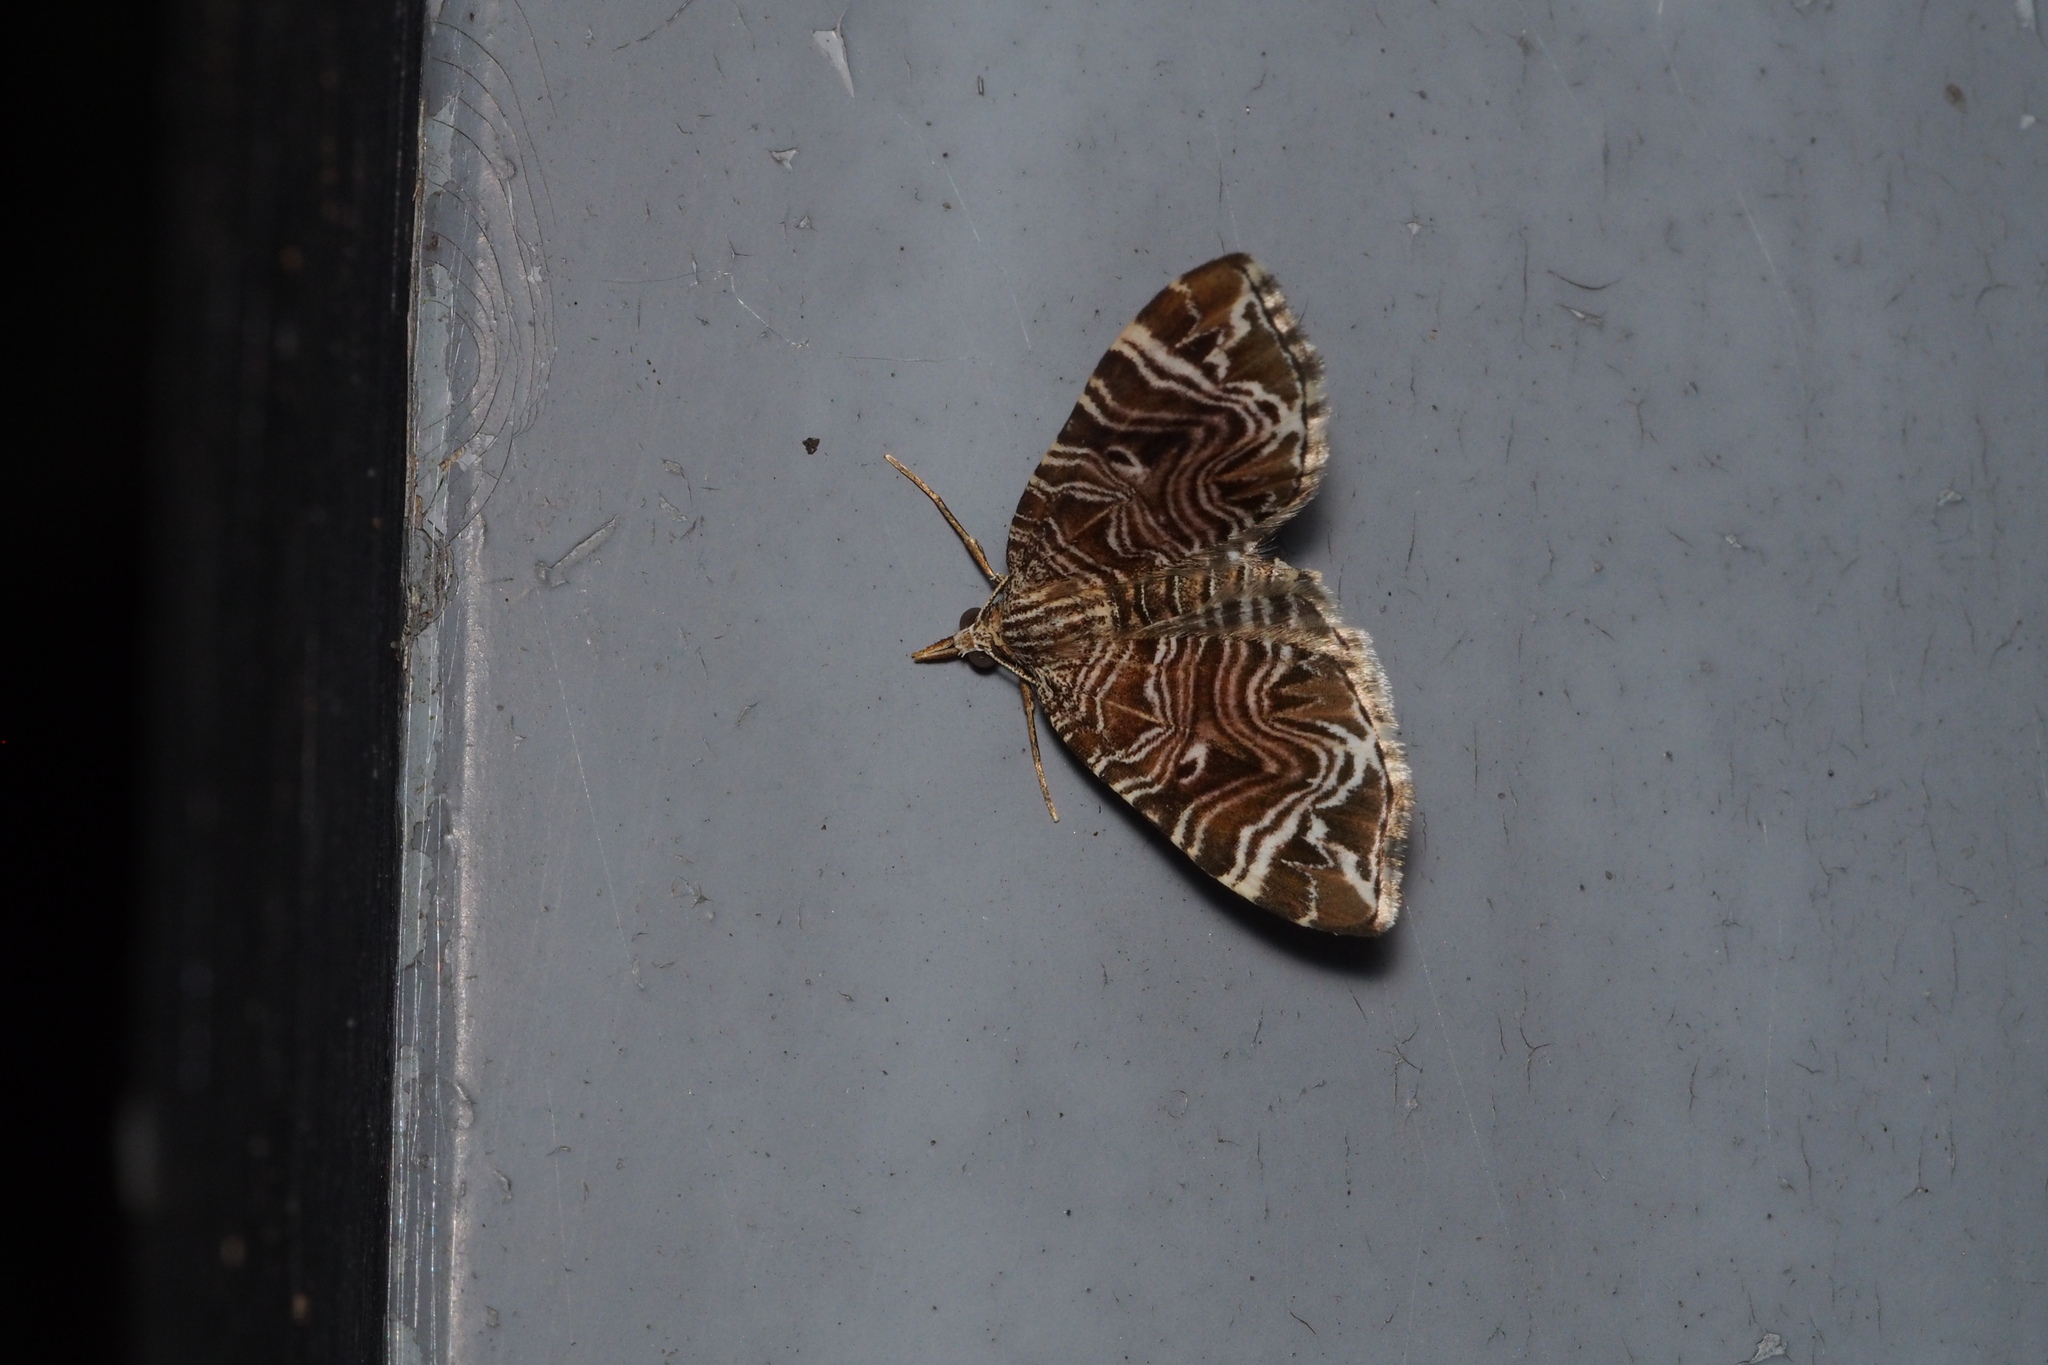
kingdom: Animalia
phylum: Arthropoda
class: Insecta
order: Lepidoptera
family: Geometridae
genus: Microlygris
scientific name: Microlygris multistriata
